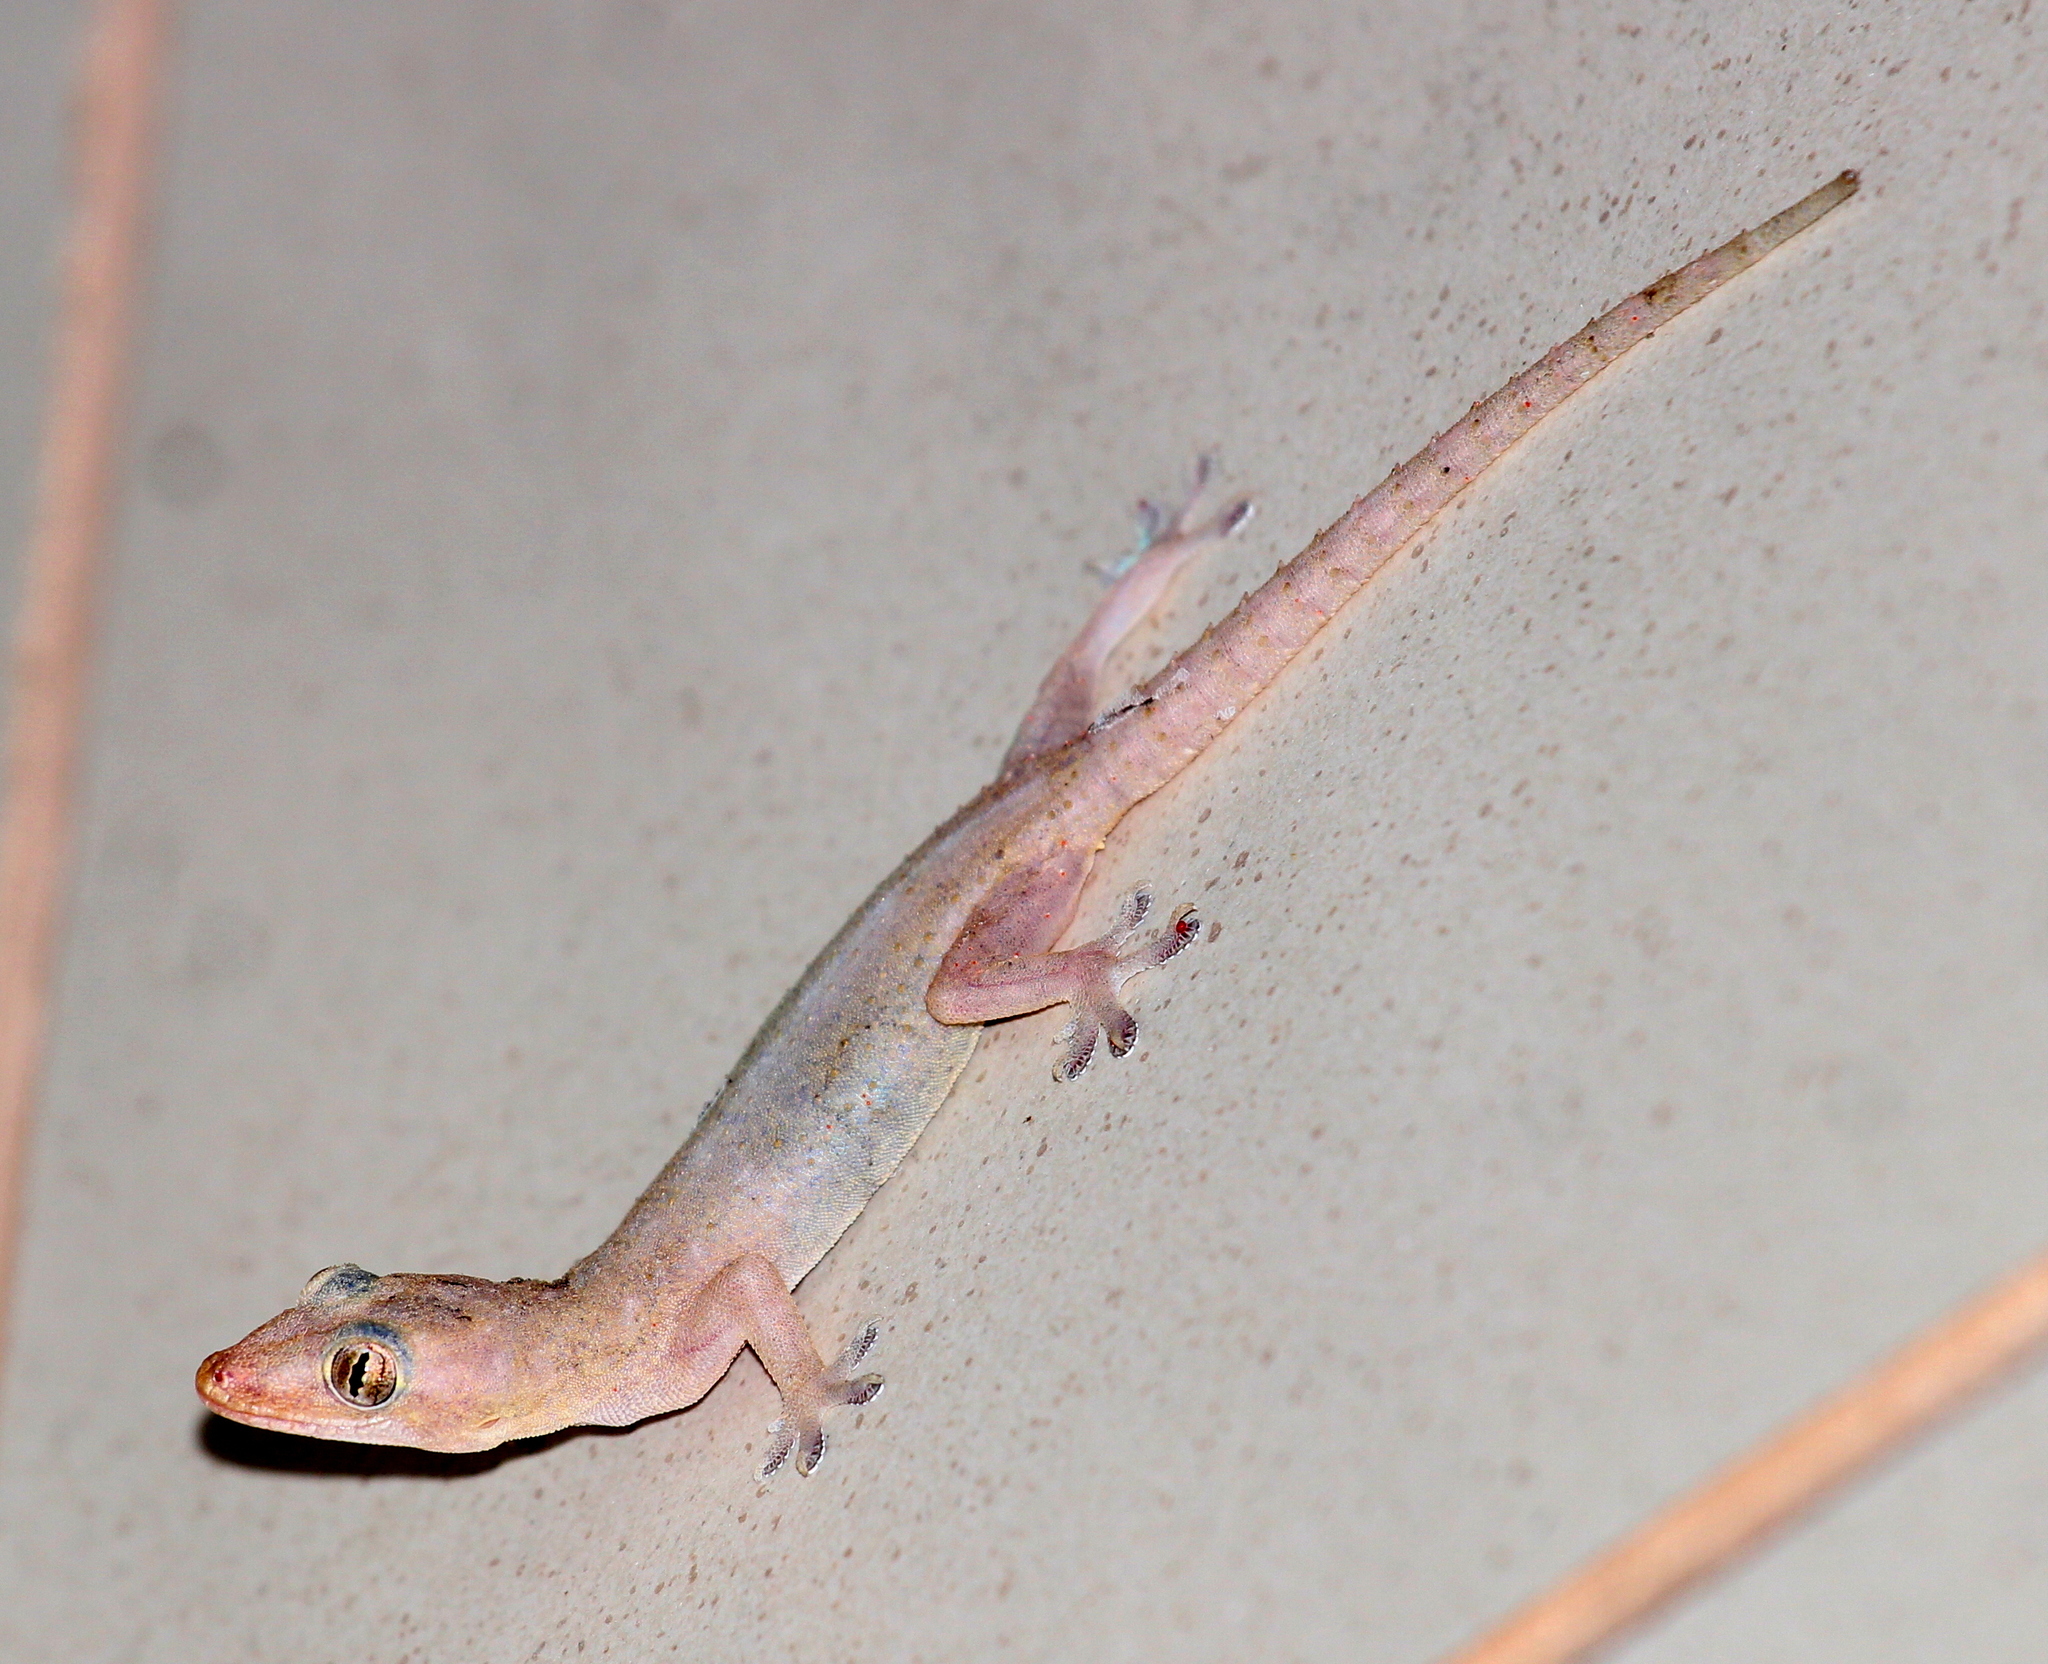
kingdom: Animalia
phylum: Chordata
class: Squamata
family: Gekkonidae
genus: Hemidactylus
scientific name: Hemidactylus frenatus
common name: Common house gecko
